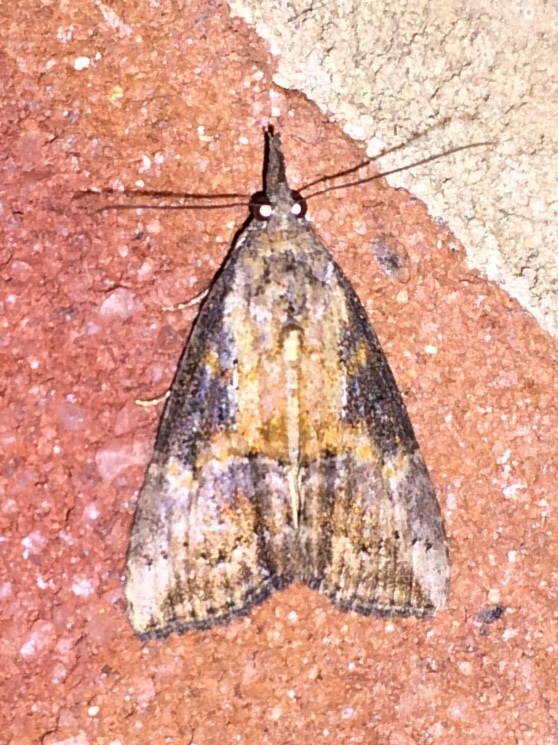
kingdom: Animalia
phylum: Arthropoda
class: Insecta
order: Lepidoptera
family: Erebidae
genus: Hypena
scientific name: Hypena scabra
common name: Green cloverworm
